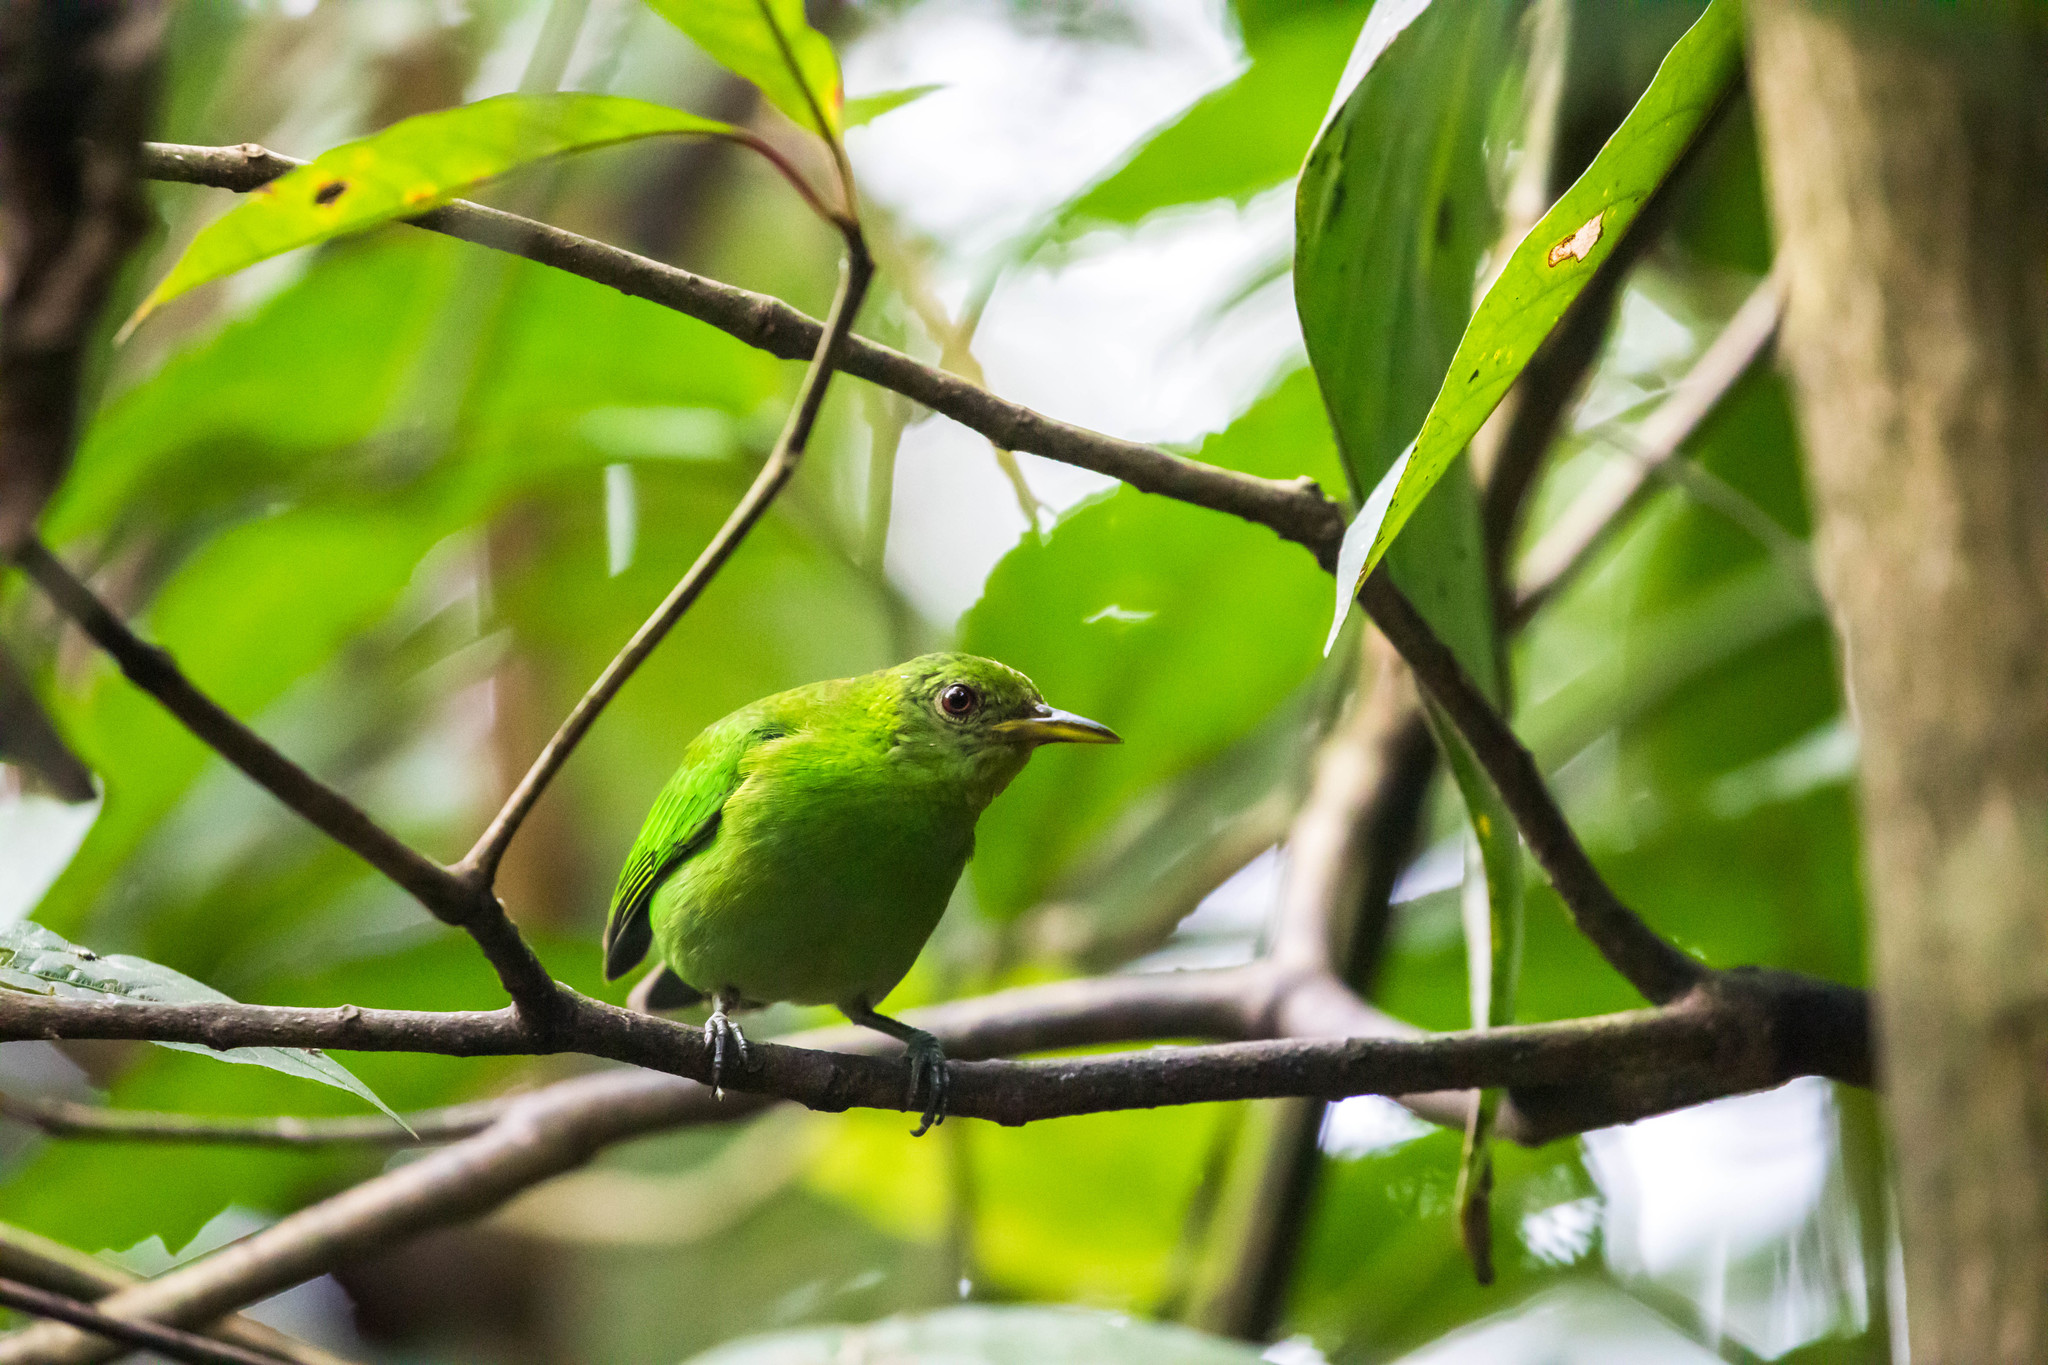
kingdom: Animalia
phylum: Chordata
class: Aves
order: Passeriformes
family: Thraupidae
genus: Chlorophanes
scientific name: Chlorophanes spiza
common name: Green honeycreeper
